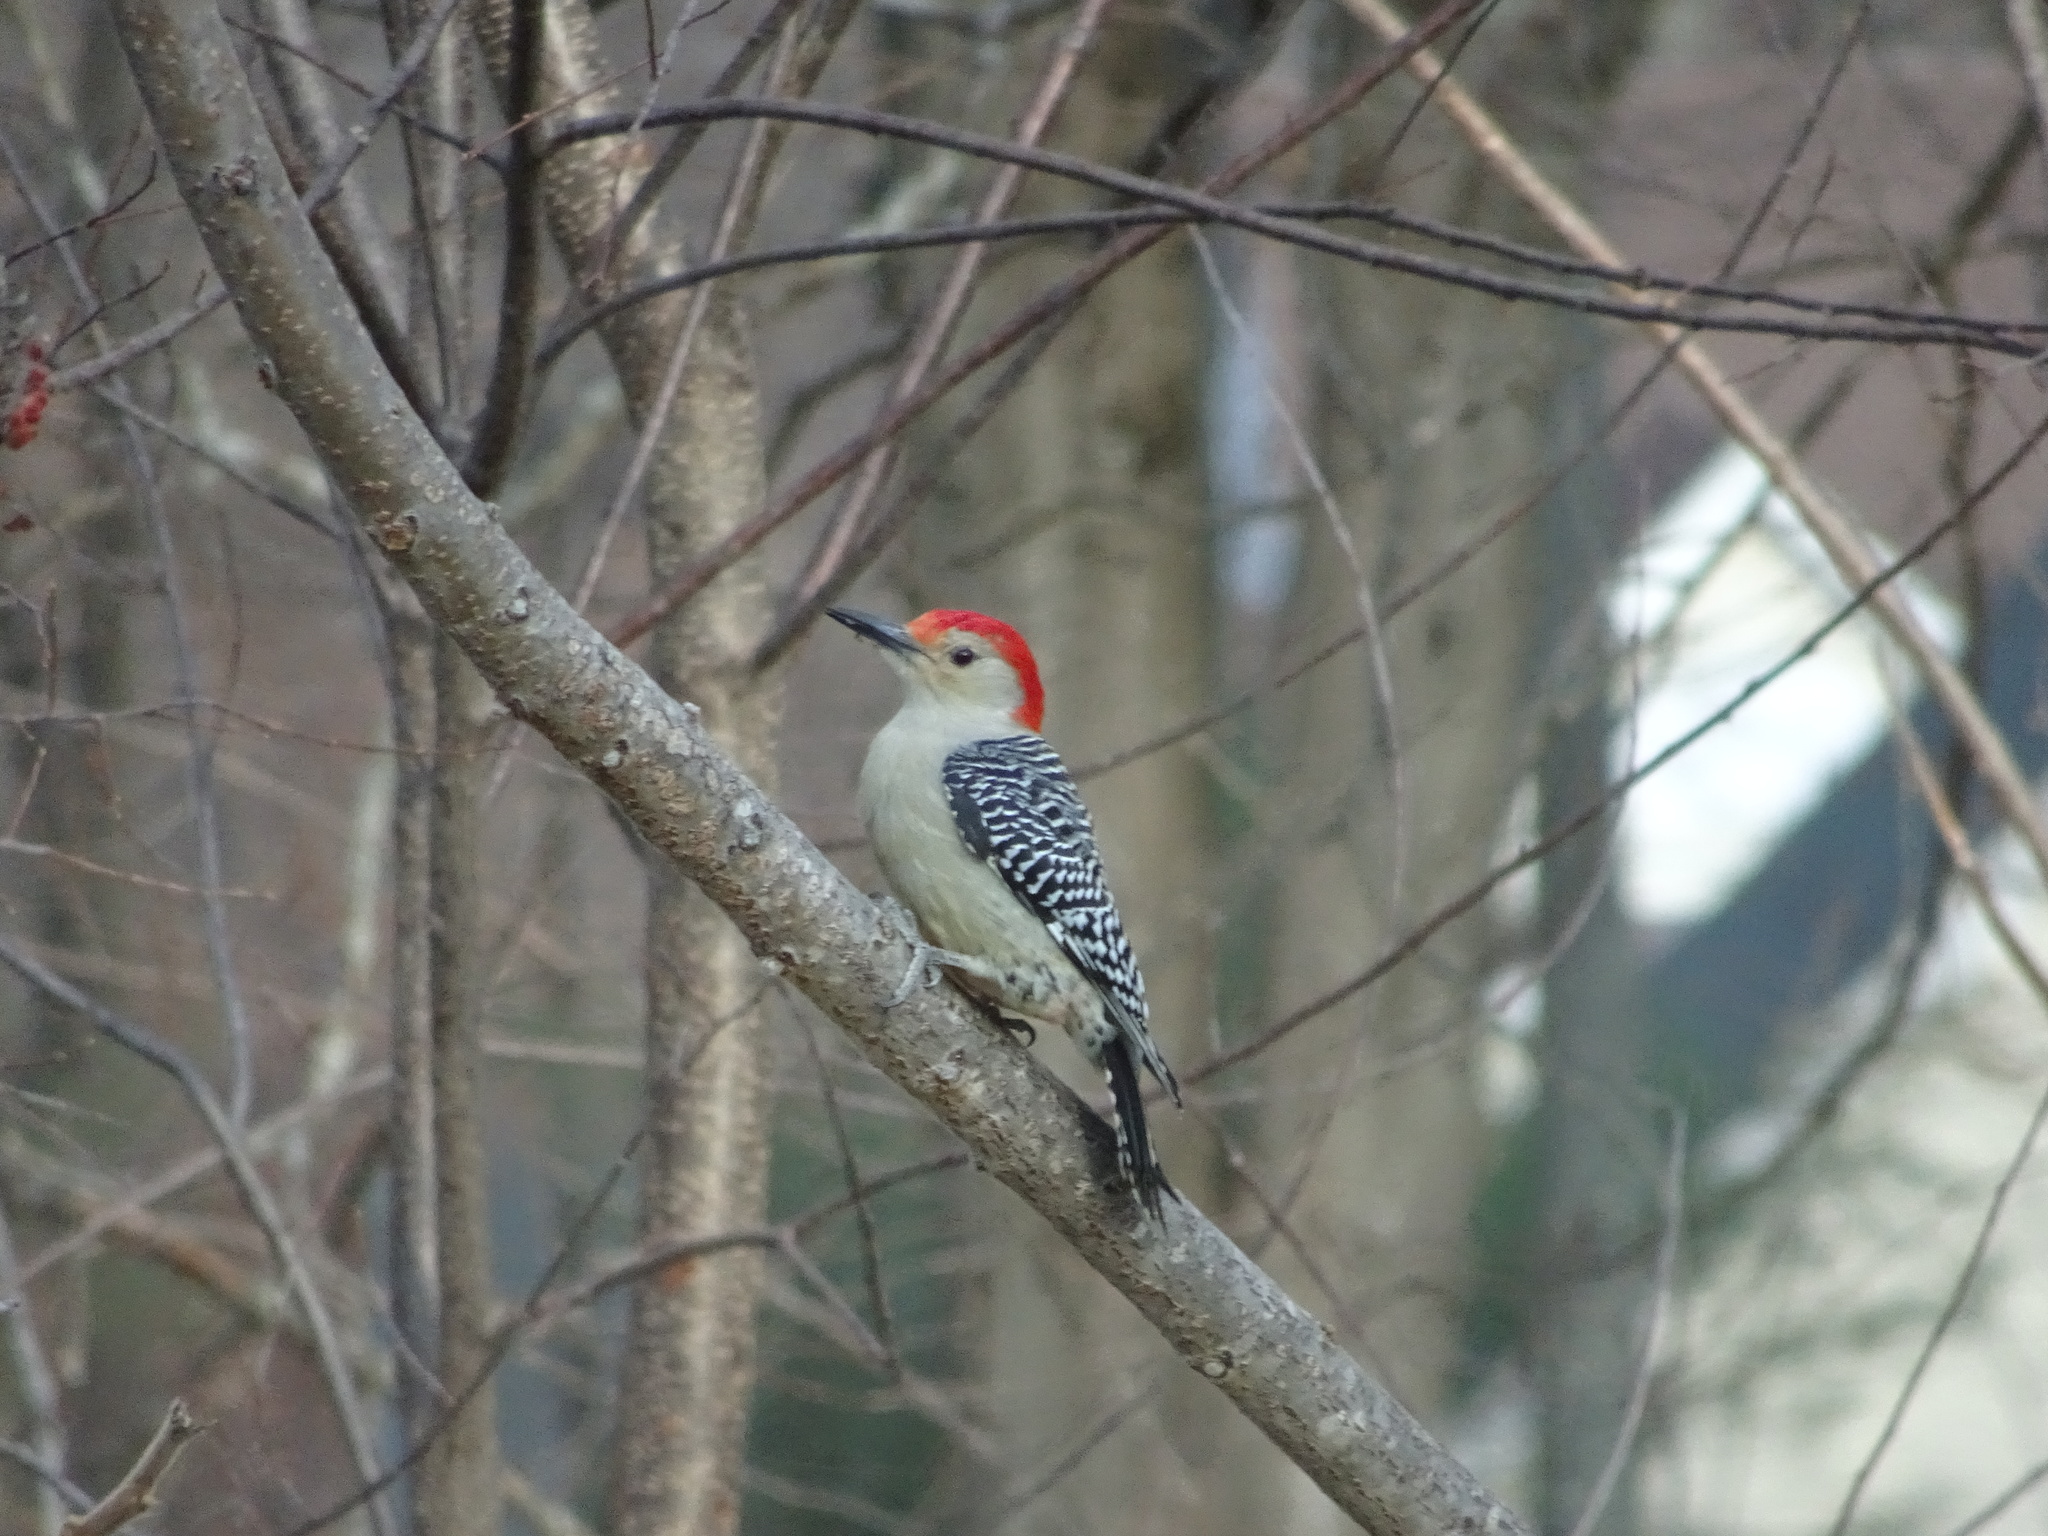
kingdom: Animalia
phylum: Chordata
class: Aves
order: Piciformes
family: Picidae
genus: Melanerpes
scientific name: Melanerpes carolinus
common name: Red-bellied woodpecker
